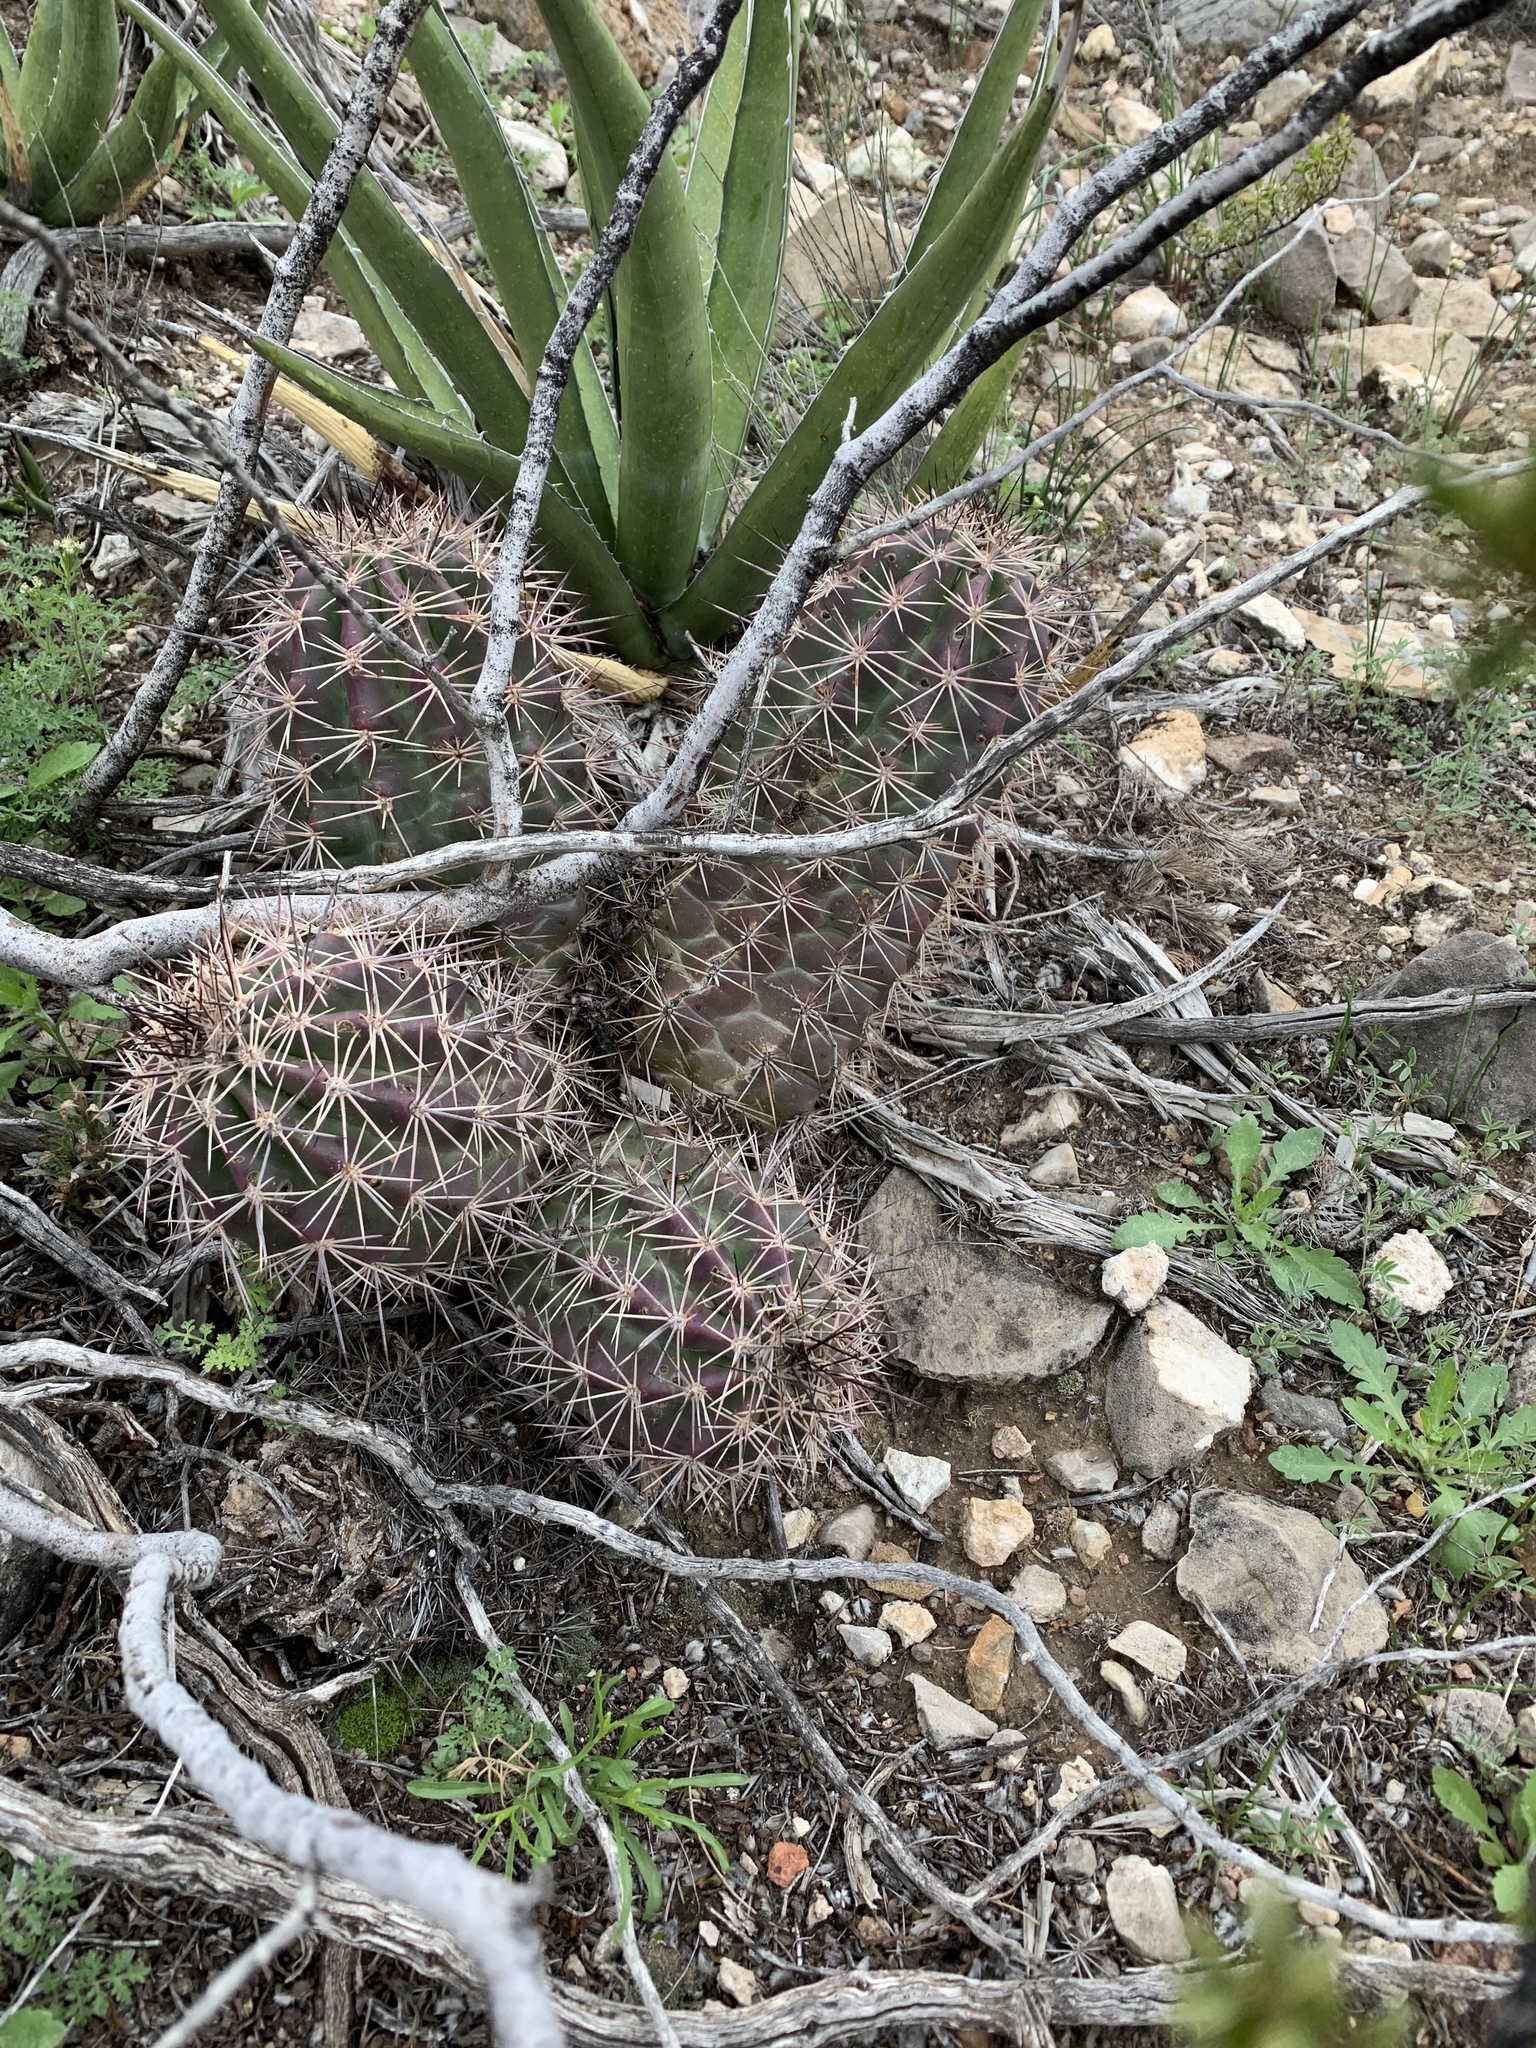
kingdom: Plantae
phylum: Tracheophyta
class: Magnoliopsida
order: Caryophyllales
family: Cactaceae
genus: Echinocereus
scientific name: Echinocereus coccineus
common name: Scarlet hedgehog cactus
